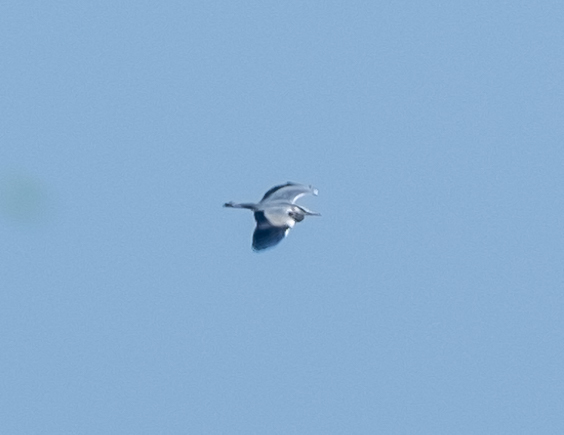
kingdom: Animalia
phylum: Chordata
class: Aves
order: Pelecaniformes
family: Ardeidae
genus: Ardea
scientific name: Ardea cinerea
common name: Grey heron
